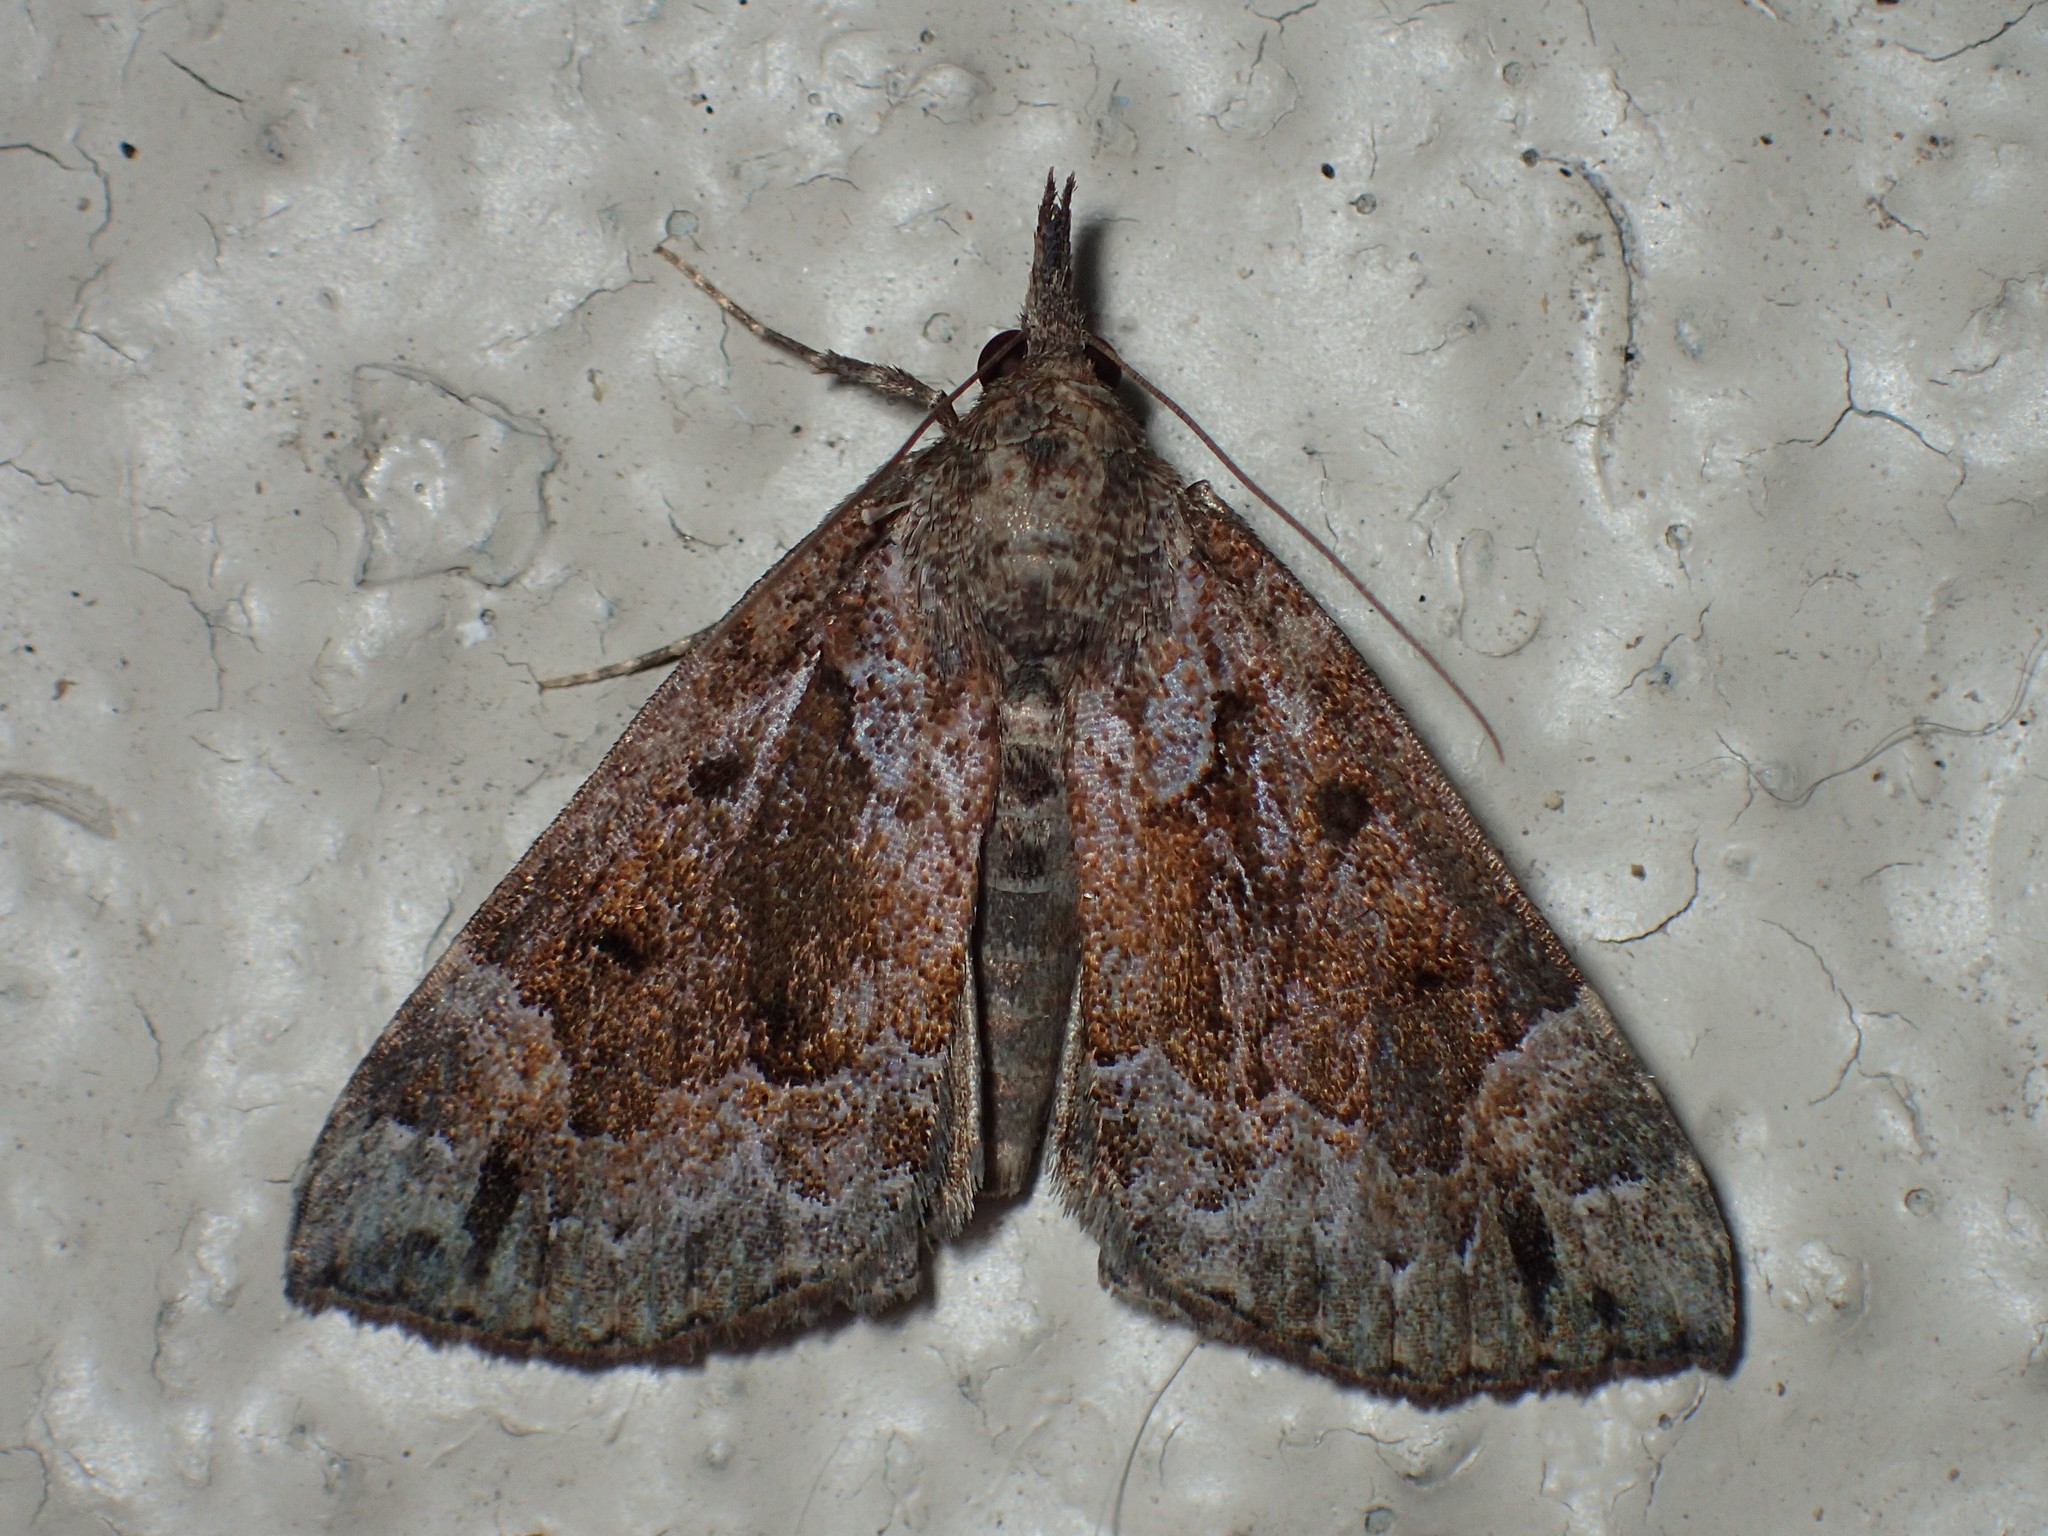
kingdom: Animalia
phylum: Arthropoda
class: Insecta
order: Lepidoptera
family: Erebidae
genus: Hypena
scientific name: Hypena palparia
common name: Mottled bomolocha moth
